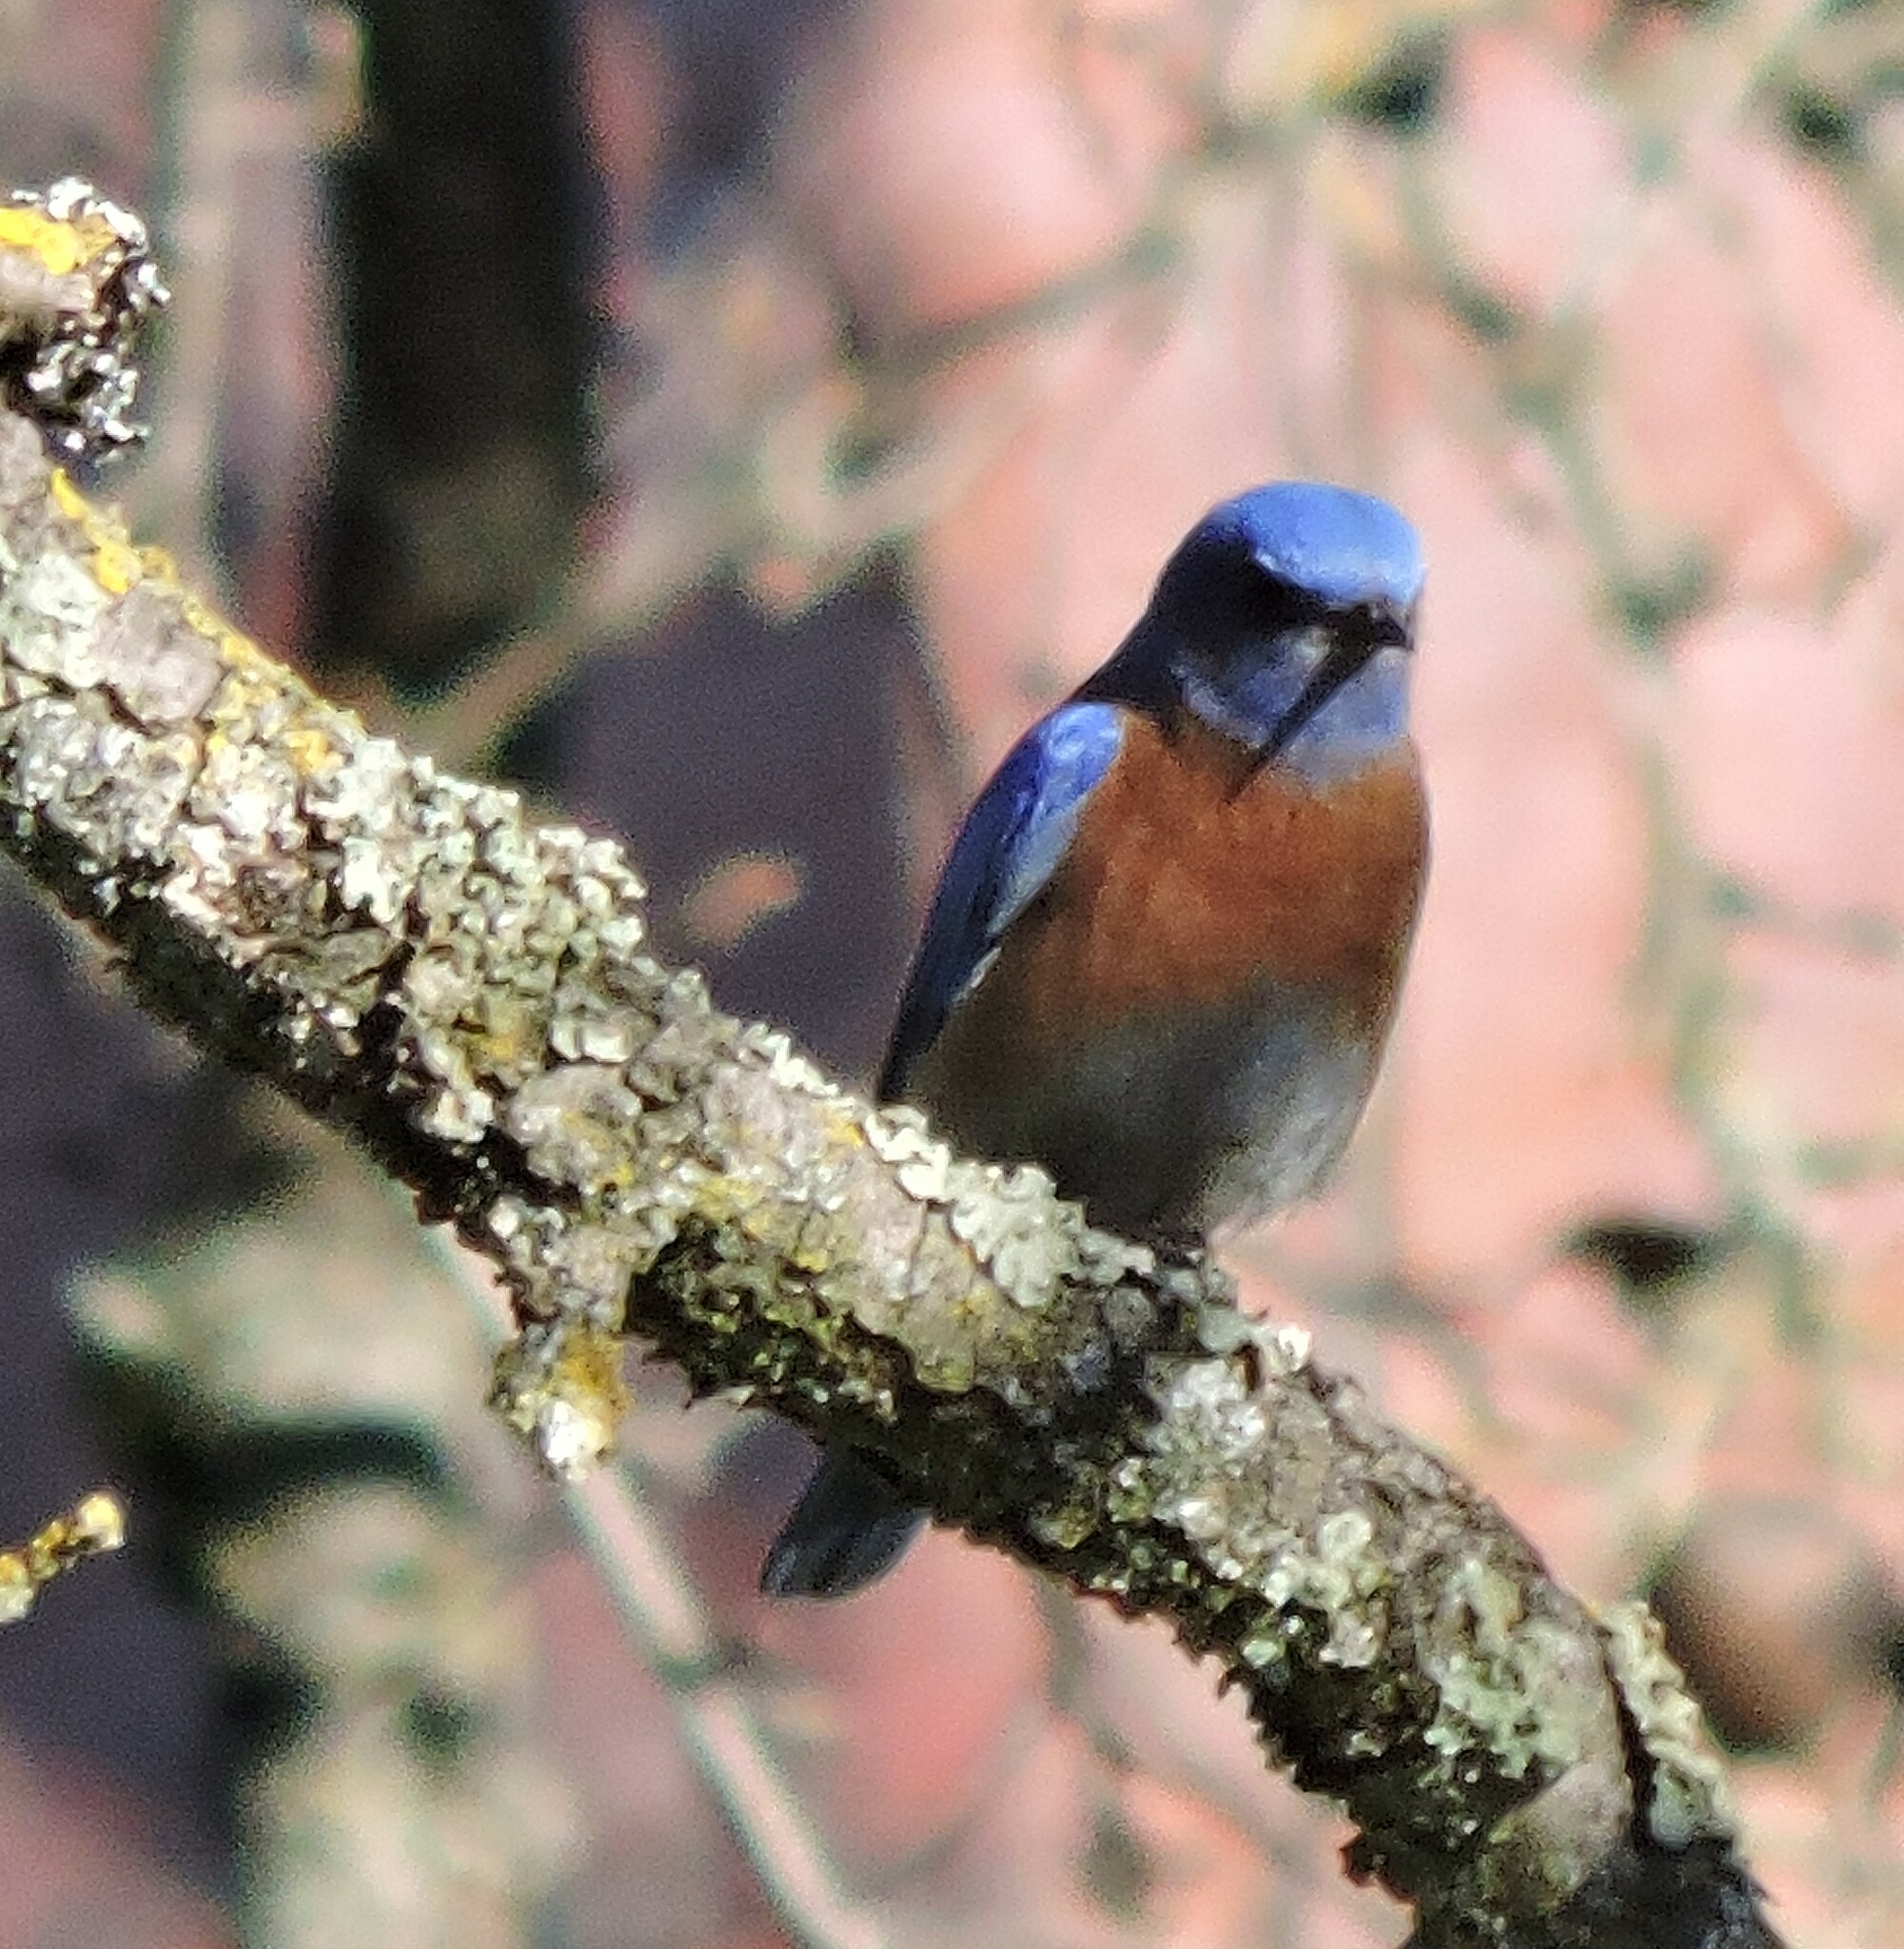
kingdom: Animalia
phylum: Chordata
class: Aves
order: Passeriformes
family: Turdidae
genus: Sialia
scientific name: Sialia mexicana
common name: Western bluebird
